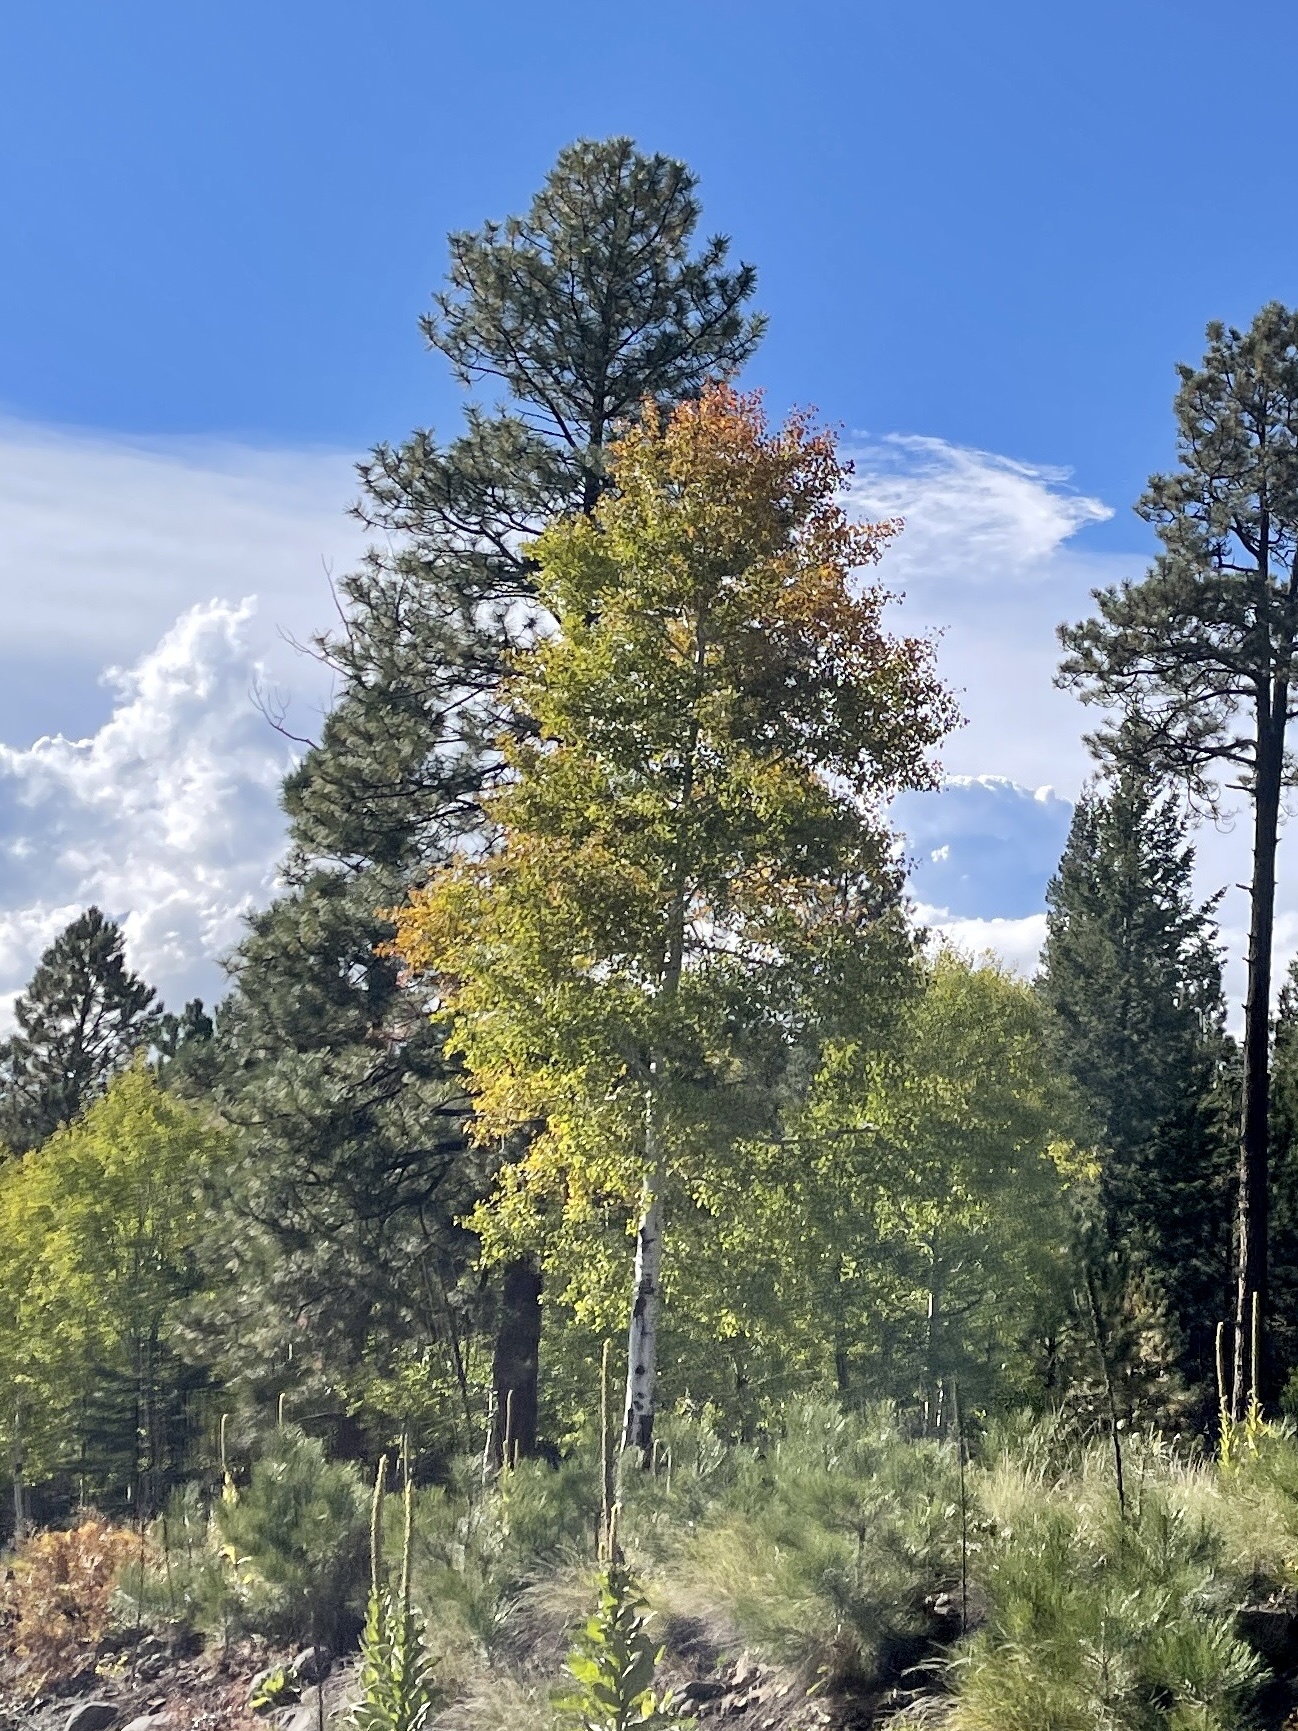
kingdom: Plantae
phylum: Tracheophyta
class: Magnoliopsida
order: Malpighiales
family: Salicaceae
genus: Populus
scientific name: Populus tremuloides
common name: Quaking aspen
